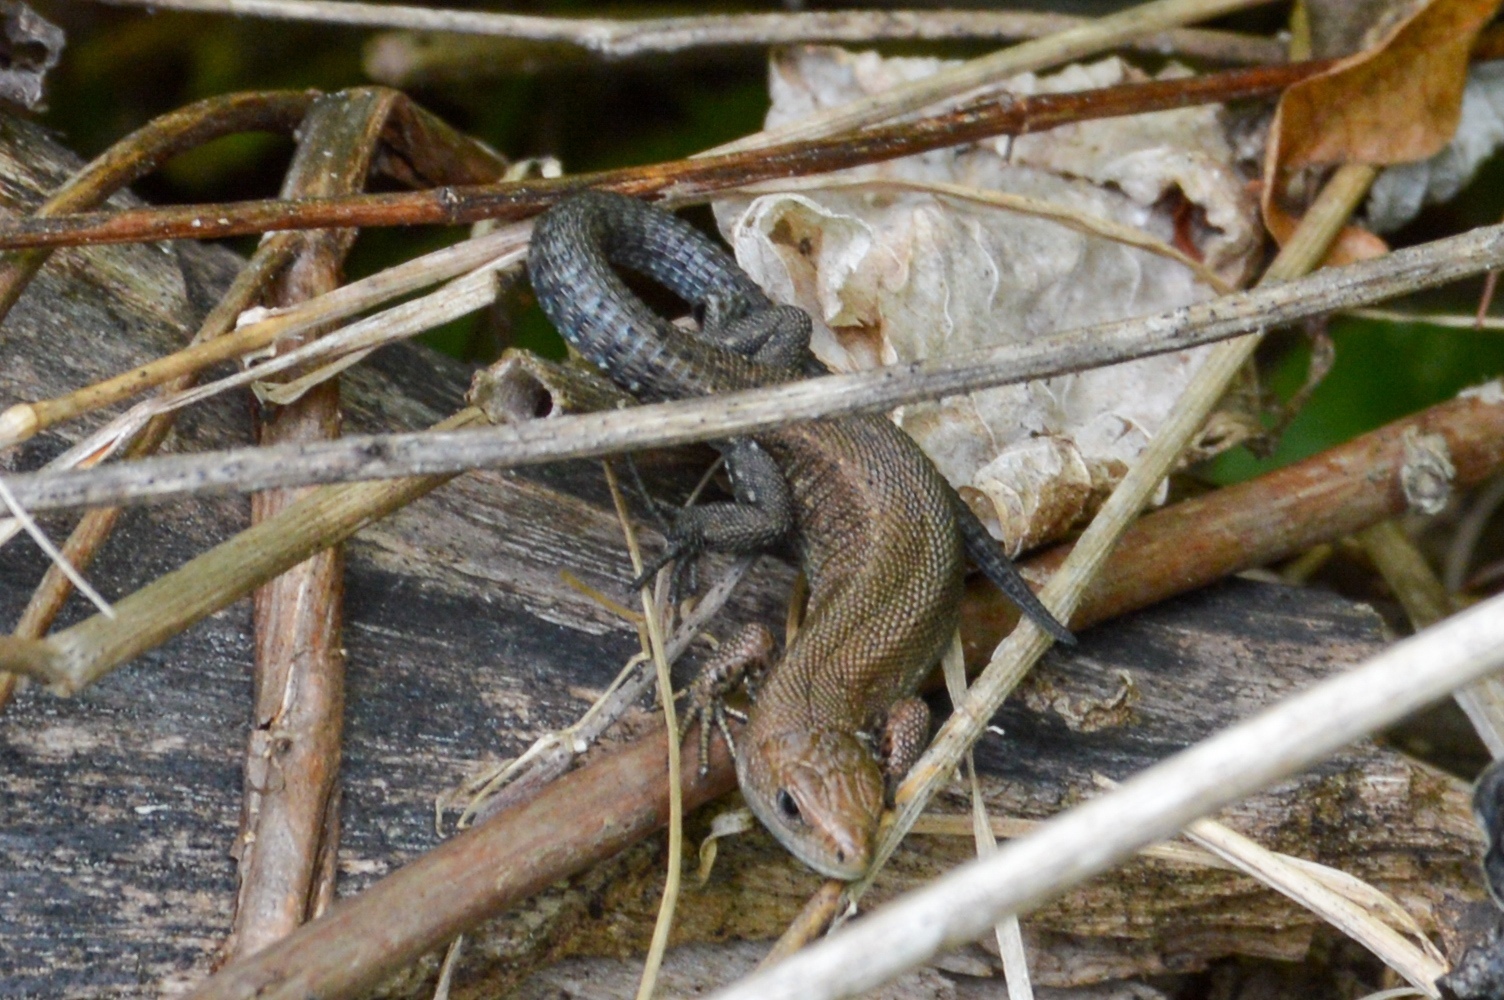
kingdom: Animalia
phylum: Chordata
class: Squamata
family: Lacertidae
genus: Zootoca
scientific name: Zootoca vivipara
